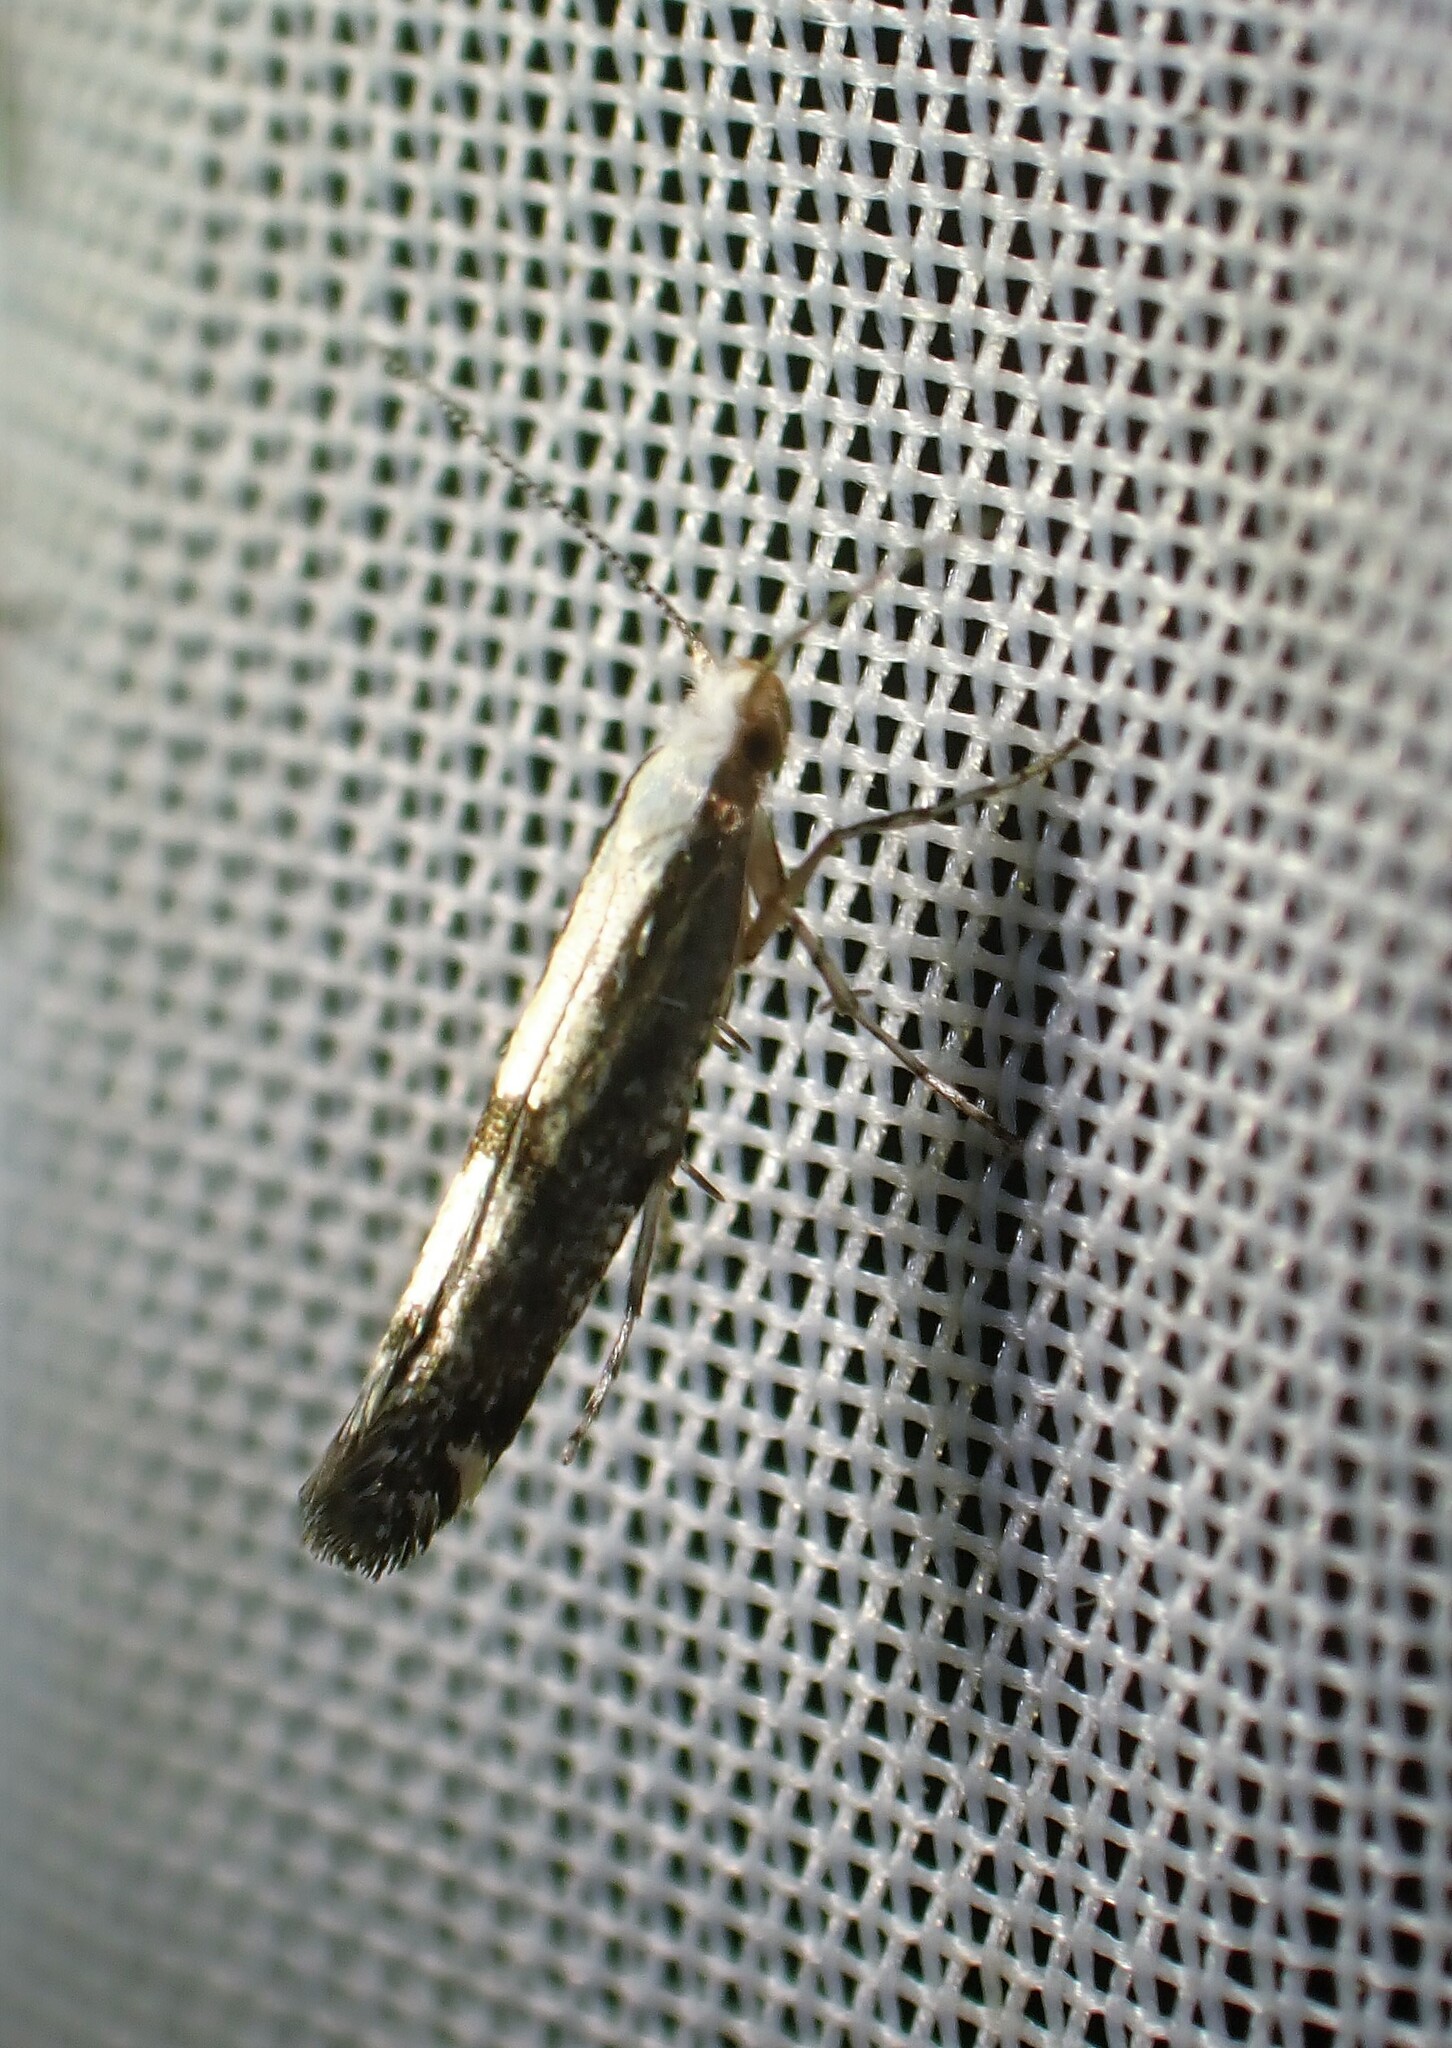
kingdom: Animalia
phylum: Arthropoda
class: Insecta
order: Lepidoptera
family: Argyresthiidae
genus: Argyresthia
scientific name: Argyresthia conjugella
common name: Apple fruit moth
